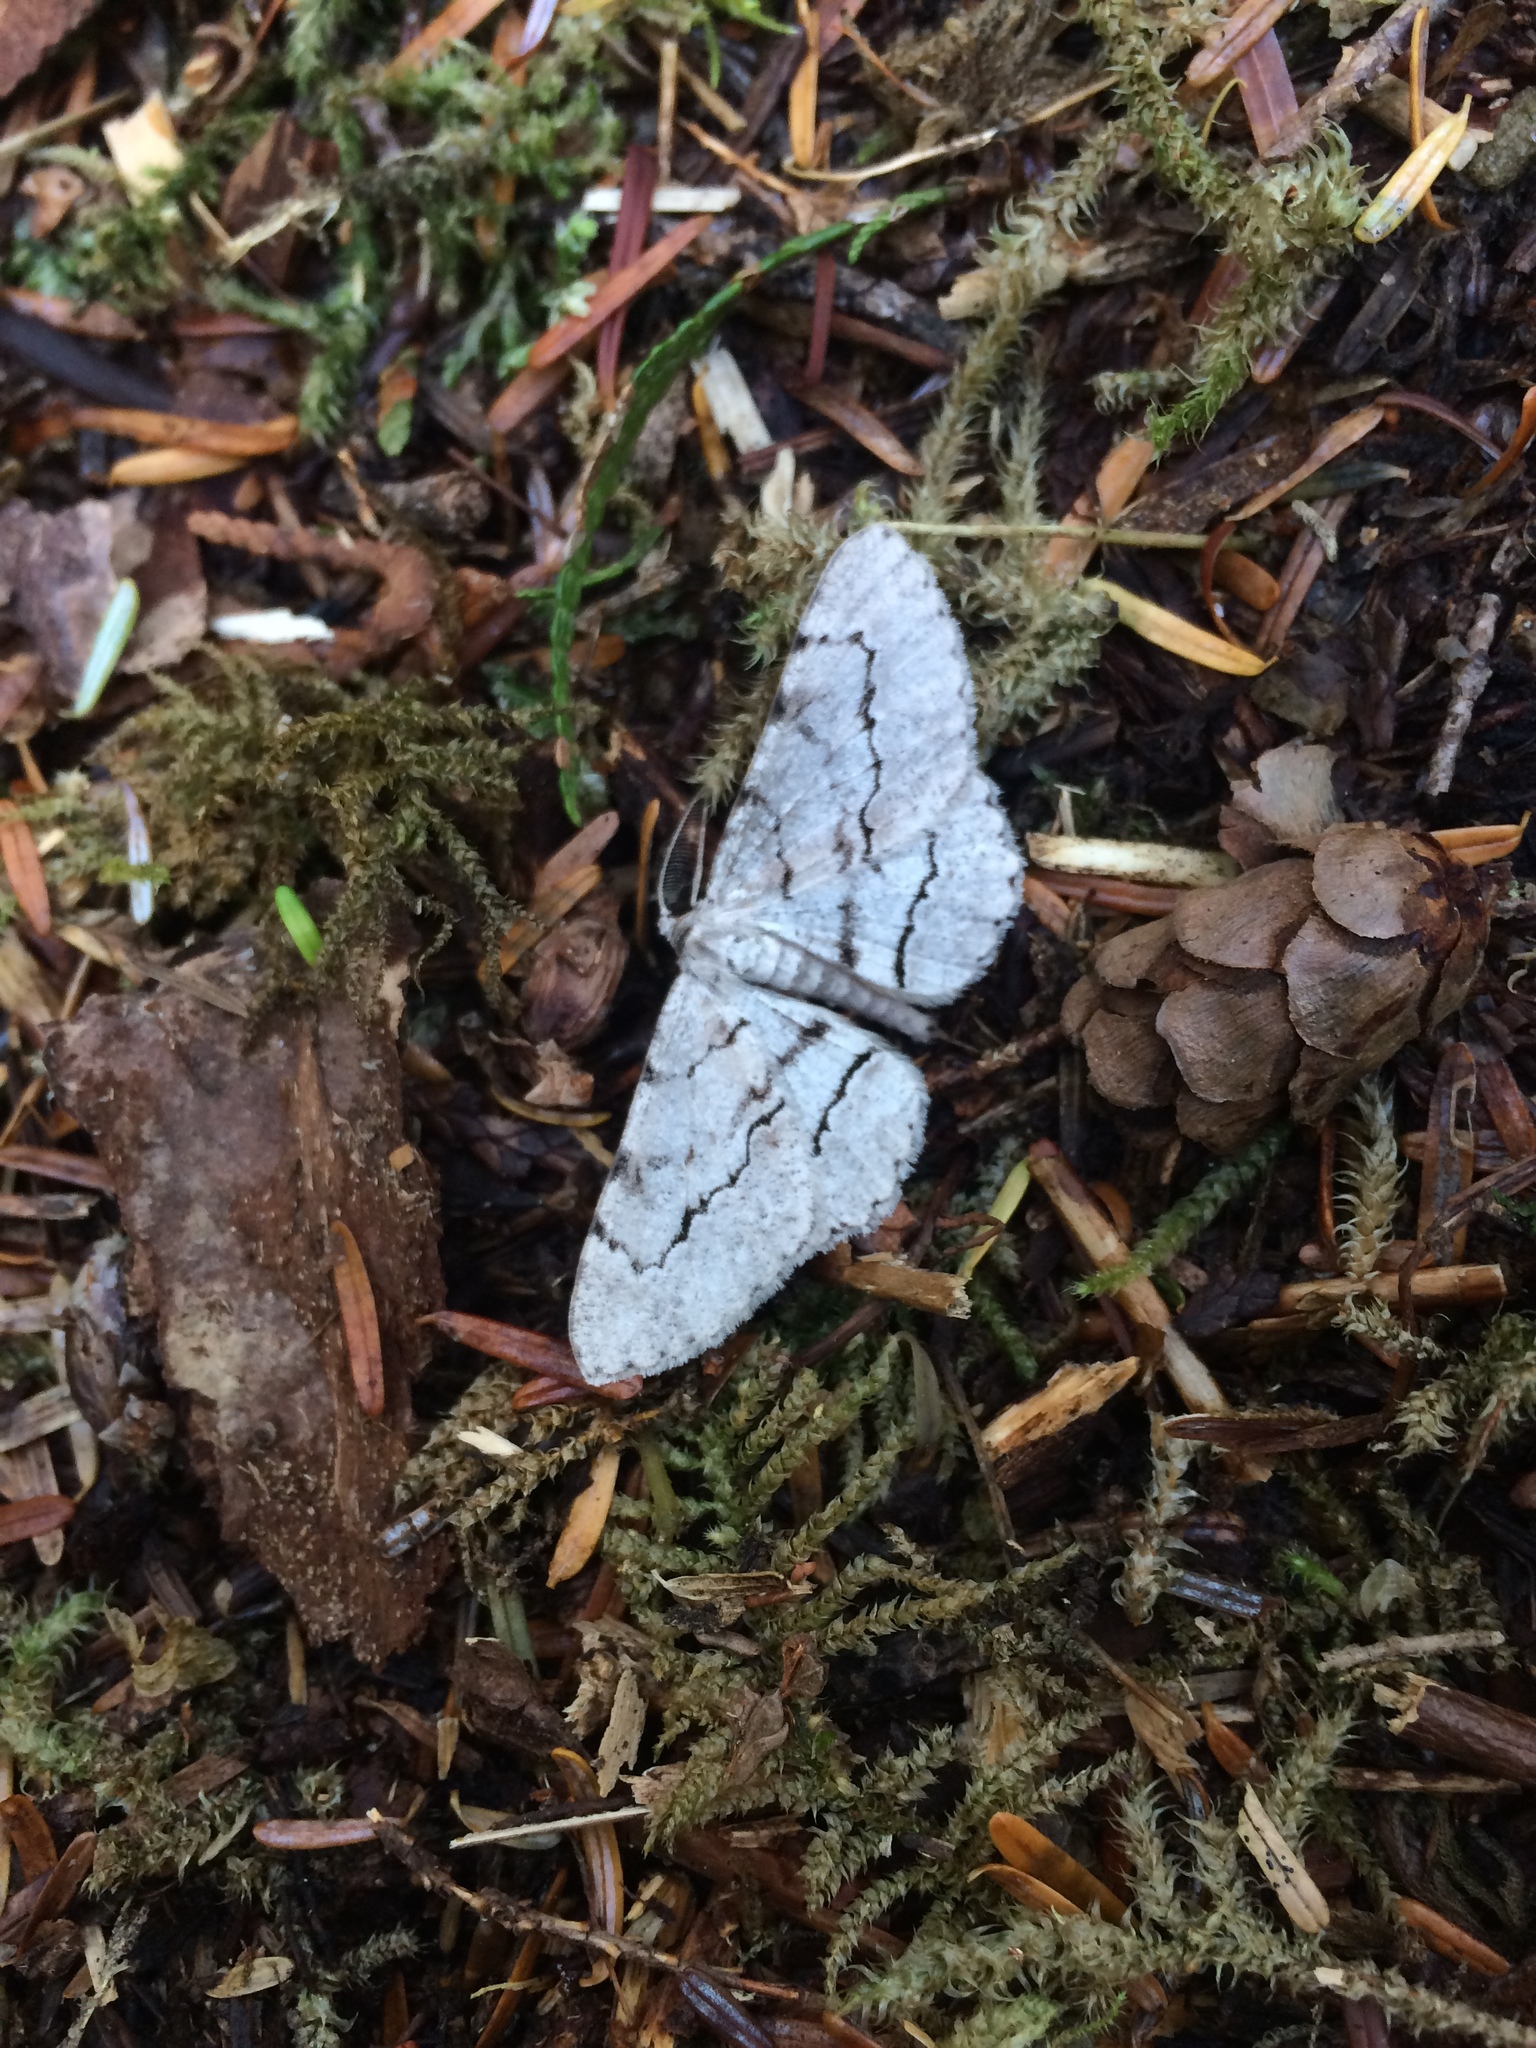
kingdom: Animalia
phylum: Arthropoda
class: Insecta
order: Lepidoptera
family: Geometridae
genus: Stenoporpia
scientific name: Stenoporpia pulmonaria
